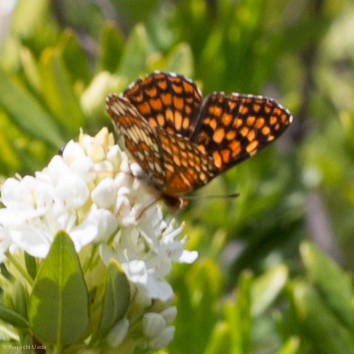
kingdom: Animalia
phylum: Arthropoda
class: Insecta
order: Lepidoptera
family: Nymphalidae
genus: Chlosyne
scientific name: Chlosyne palla
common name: Northern checkerspot
